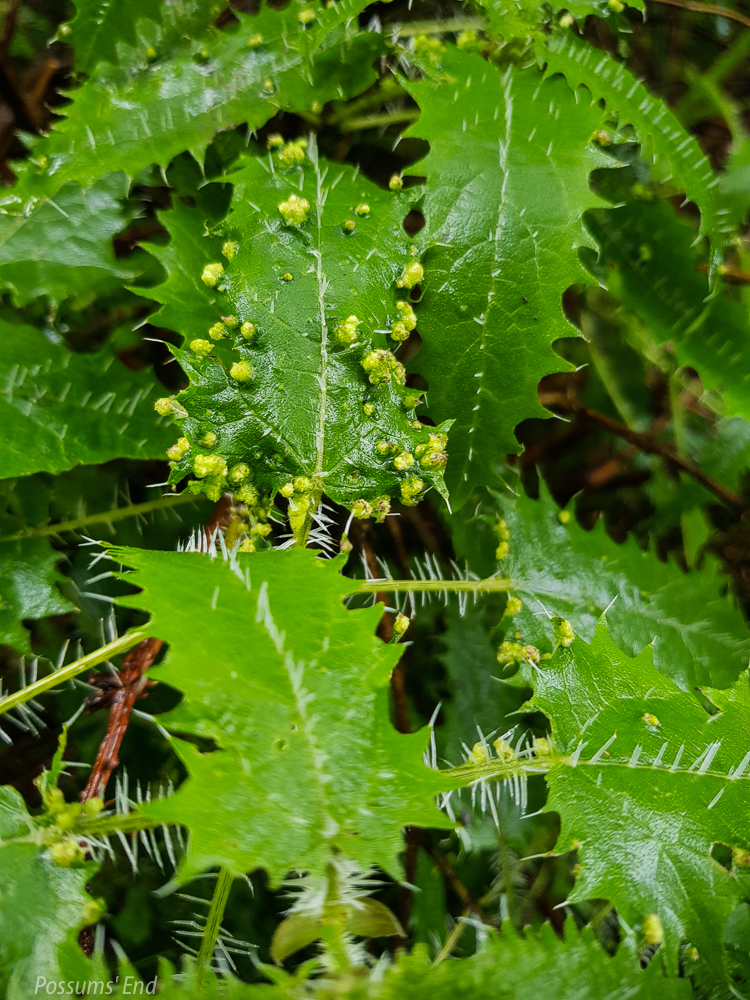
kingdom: Animalia
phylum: Arthropoda
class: Arachnida
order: Trombidiformes
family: Eriophyidae
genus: Vittacus
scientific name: Vittacus
